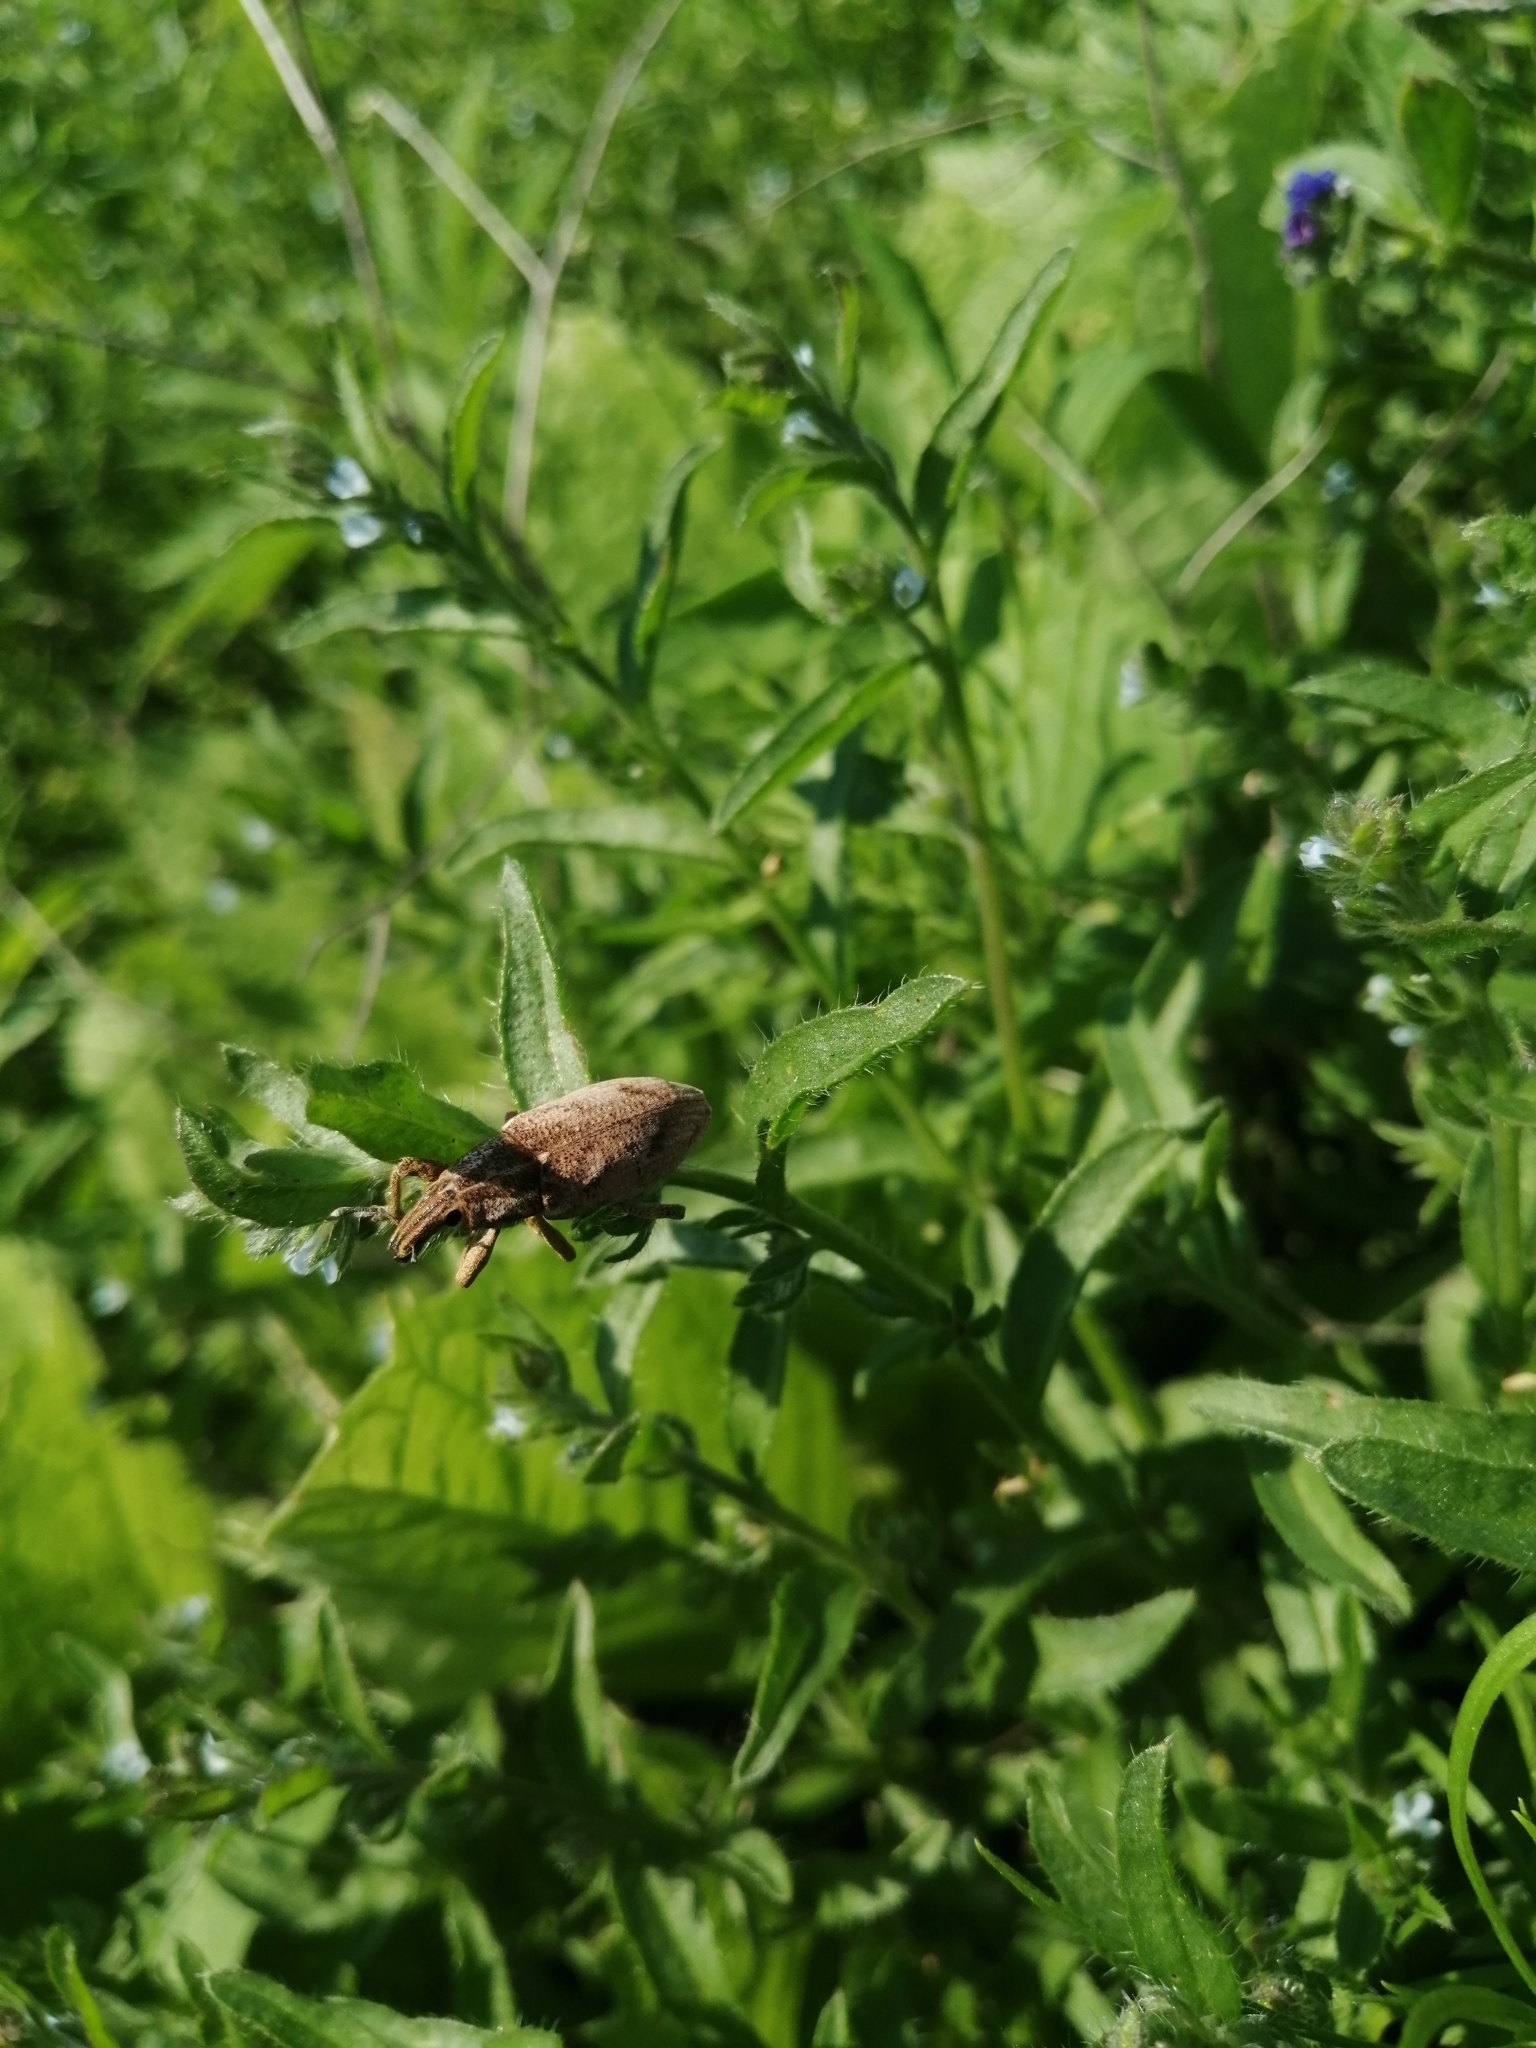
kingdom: Animalia
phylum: Arthropoda
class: Insecta
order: Coleoptera
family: Curculionidae
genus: Cleonis
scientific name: Cleonis pigra
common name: Large thistle weevil
